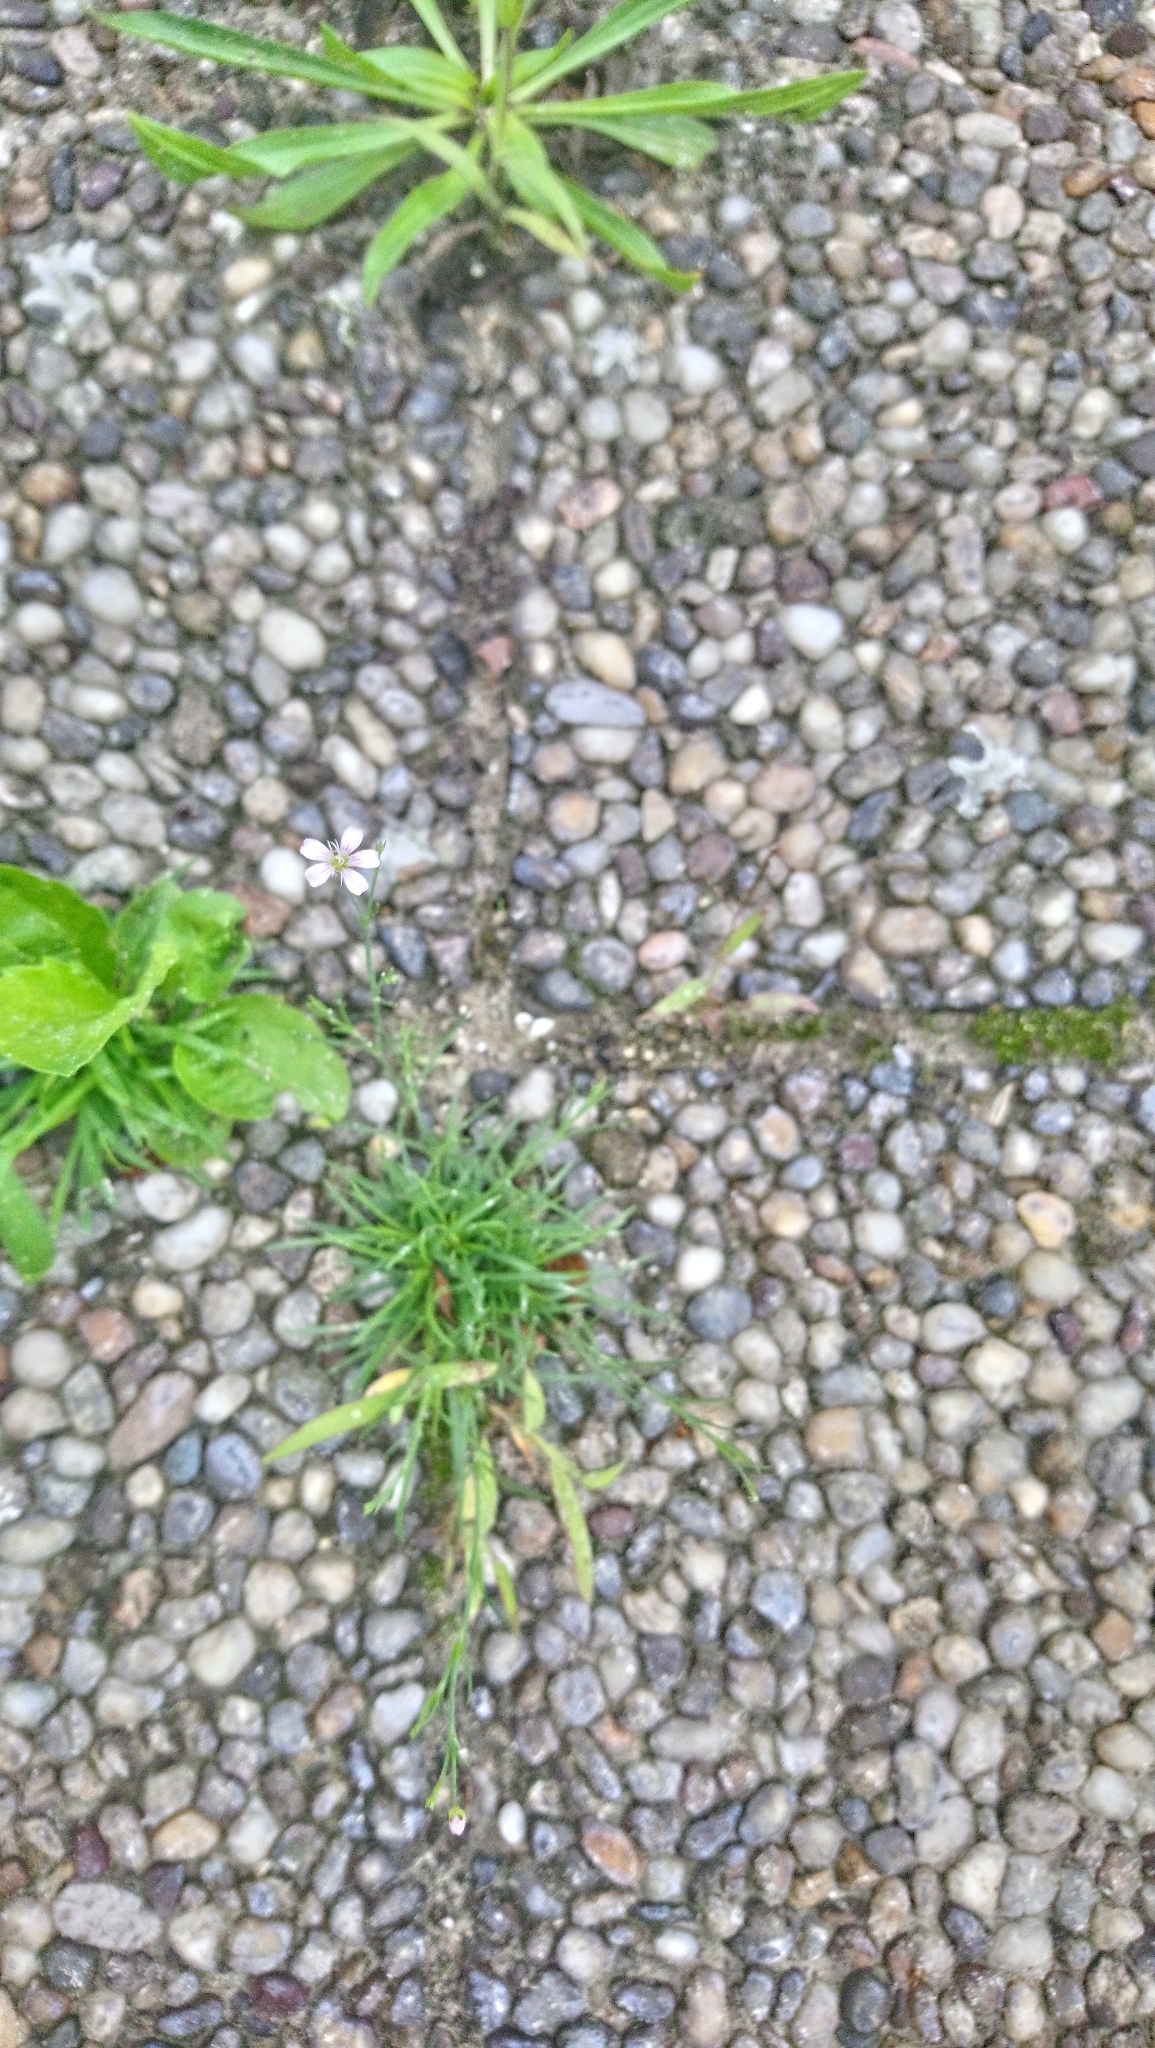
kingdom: Plantae
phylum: Tracheophyta
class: Magnoliopsida
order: Caryophyllales
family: Caryophyllaceae
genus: Petrorhagia
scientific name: Petrorhagia saxifraga
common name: Tunicflower
